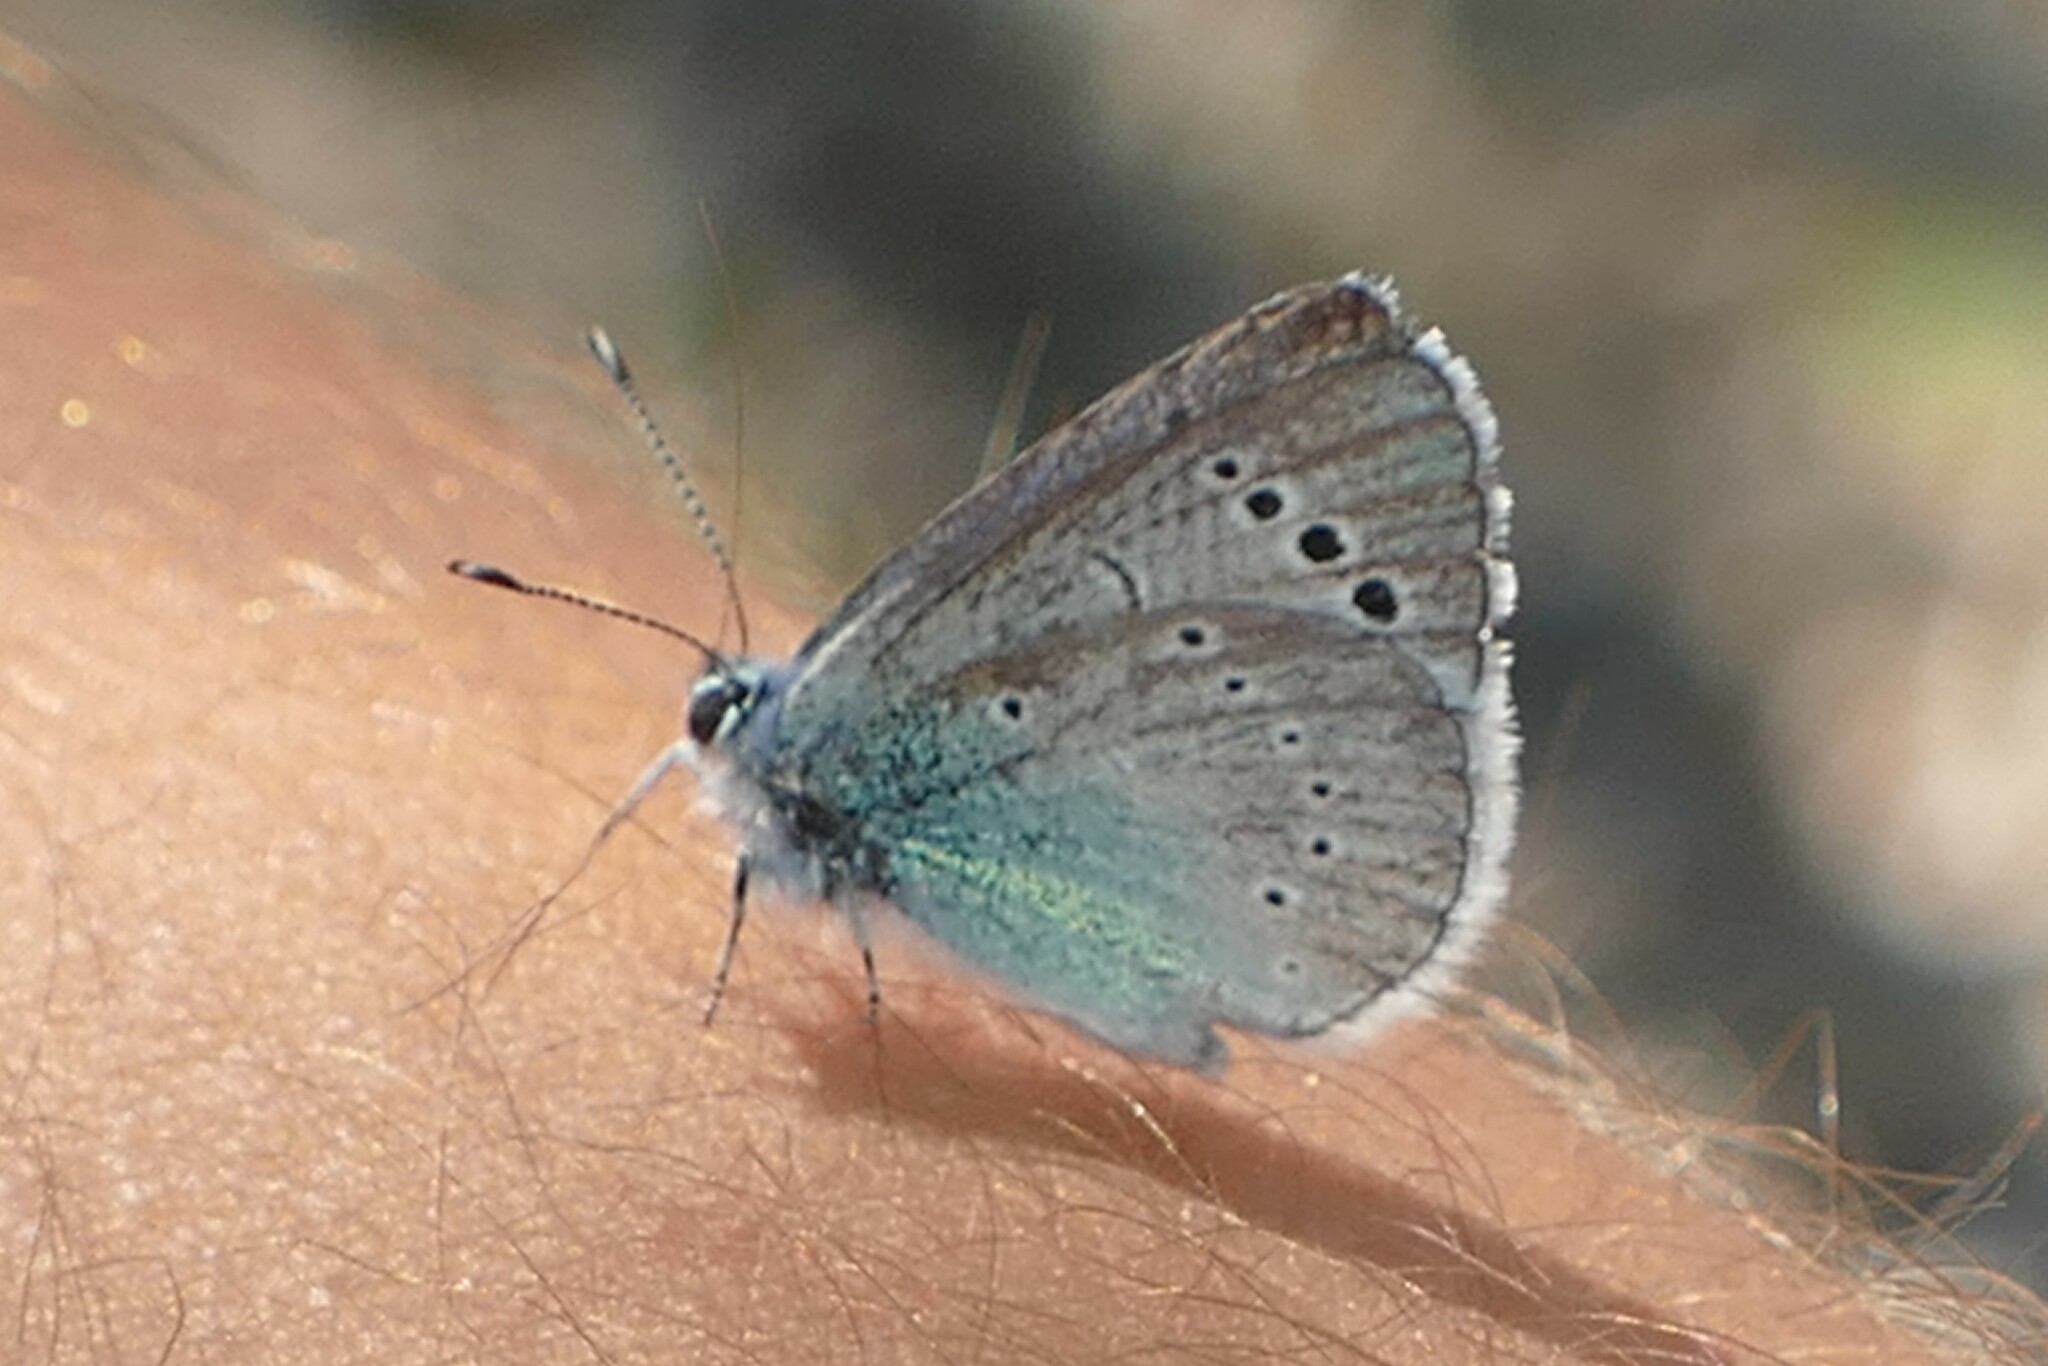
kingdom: Animalia
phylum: Arthropoda
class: Insecta
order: Lepidoptera
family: Lycaenidae
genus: Glaucopsyche
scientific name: Glaucopsyche alexis
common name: Green-underside blue
